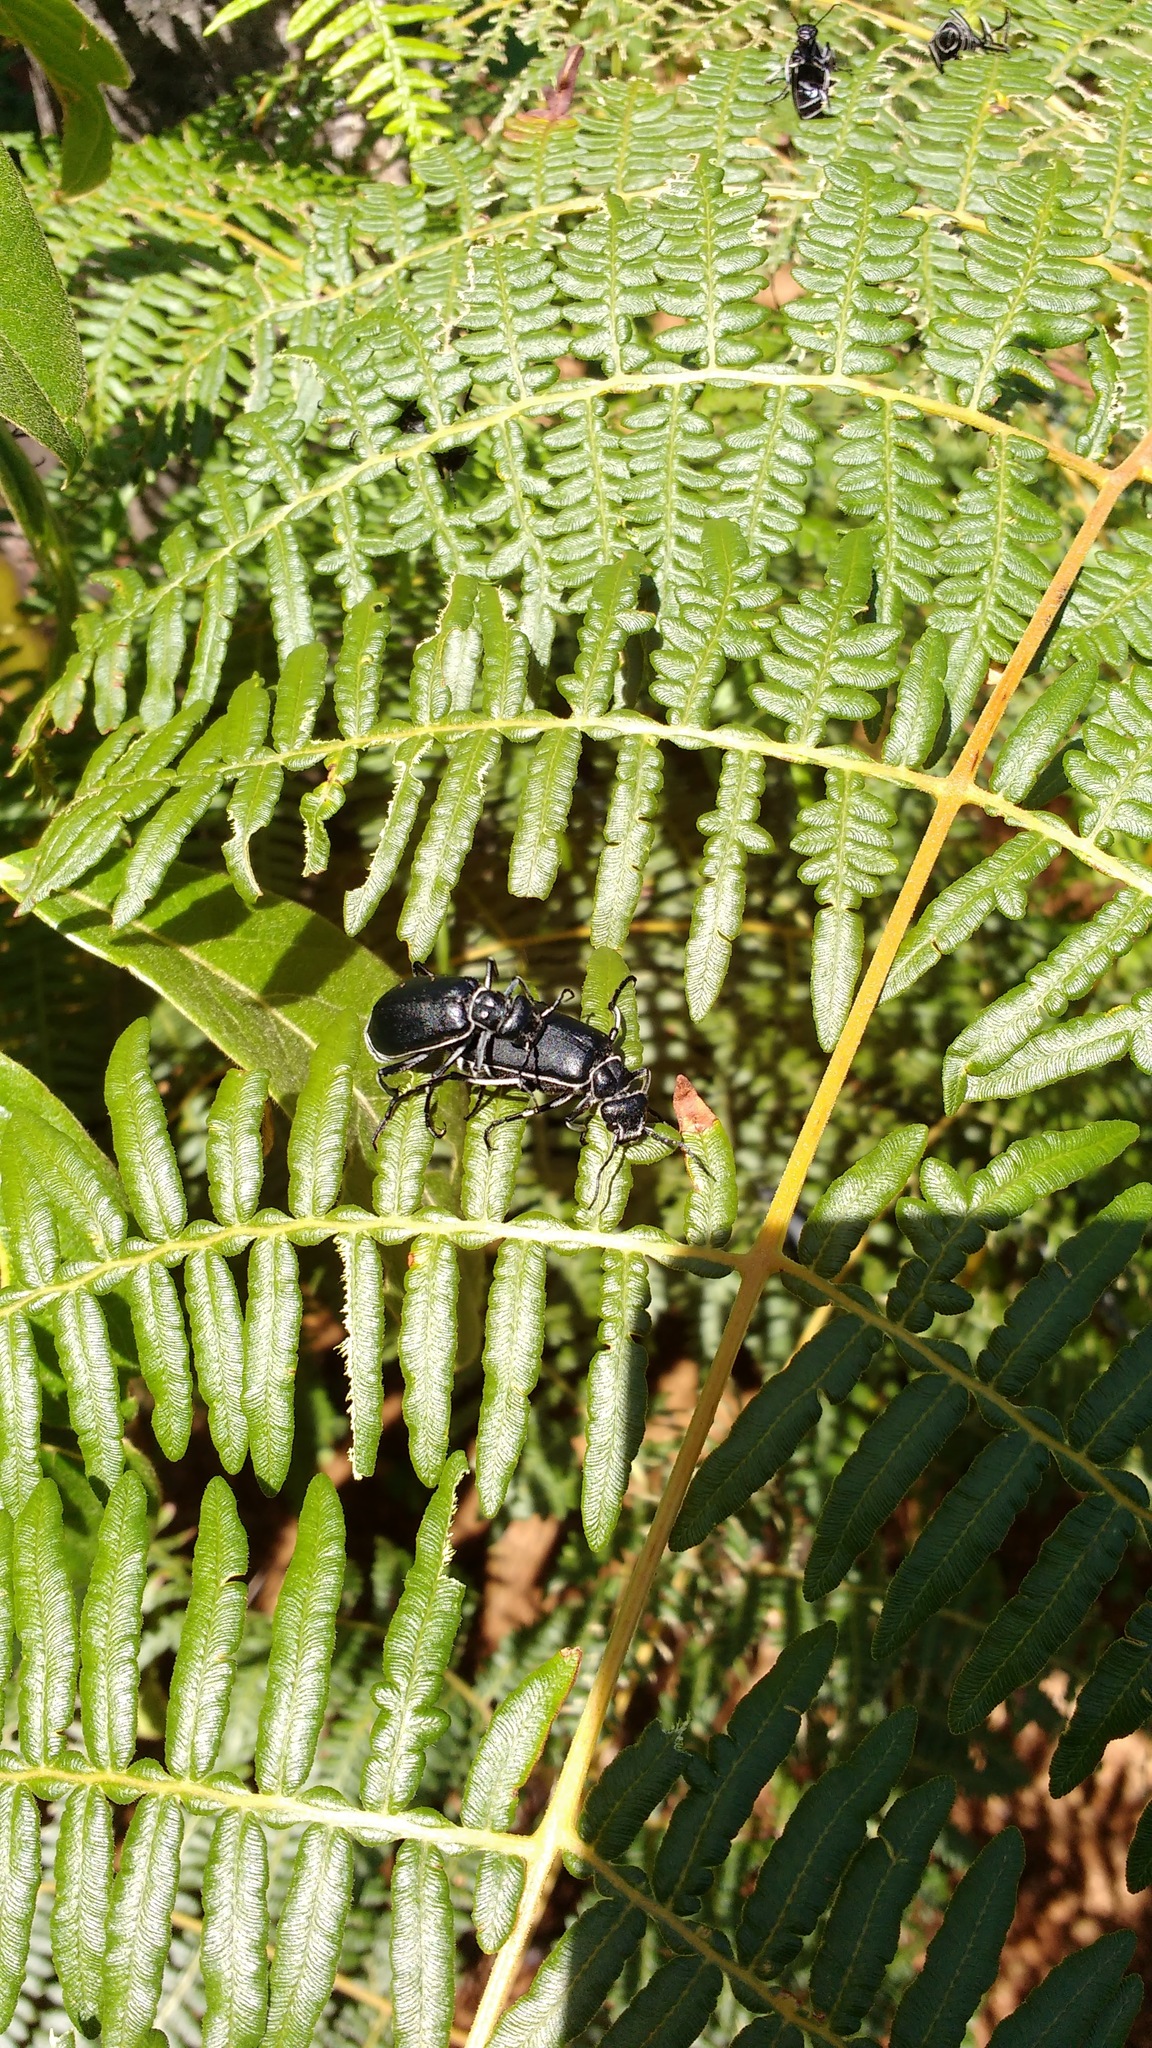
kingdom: Plantae
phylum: Tracheophyta
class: Polypodiopsida
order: Polypodiales
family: Dennstaedtiaceae
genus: Pteridium
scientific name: Pteridium esculentum
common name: Bracken fern
